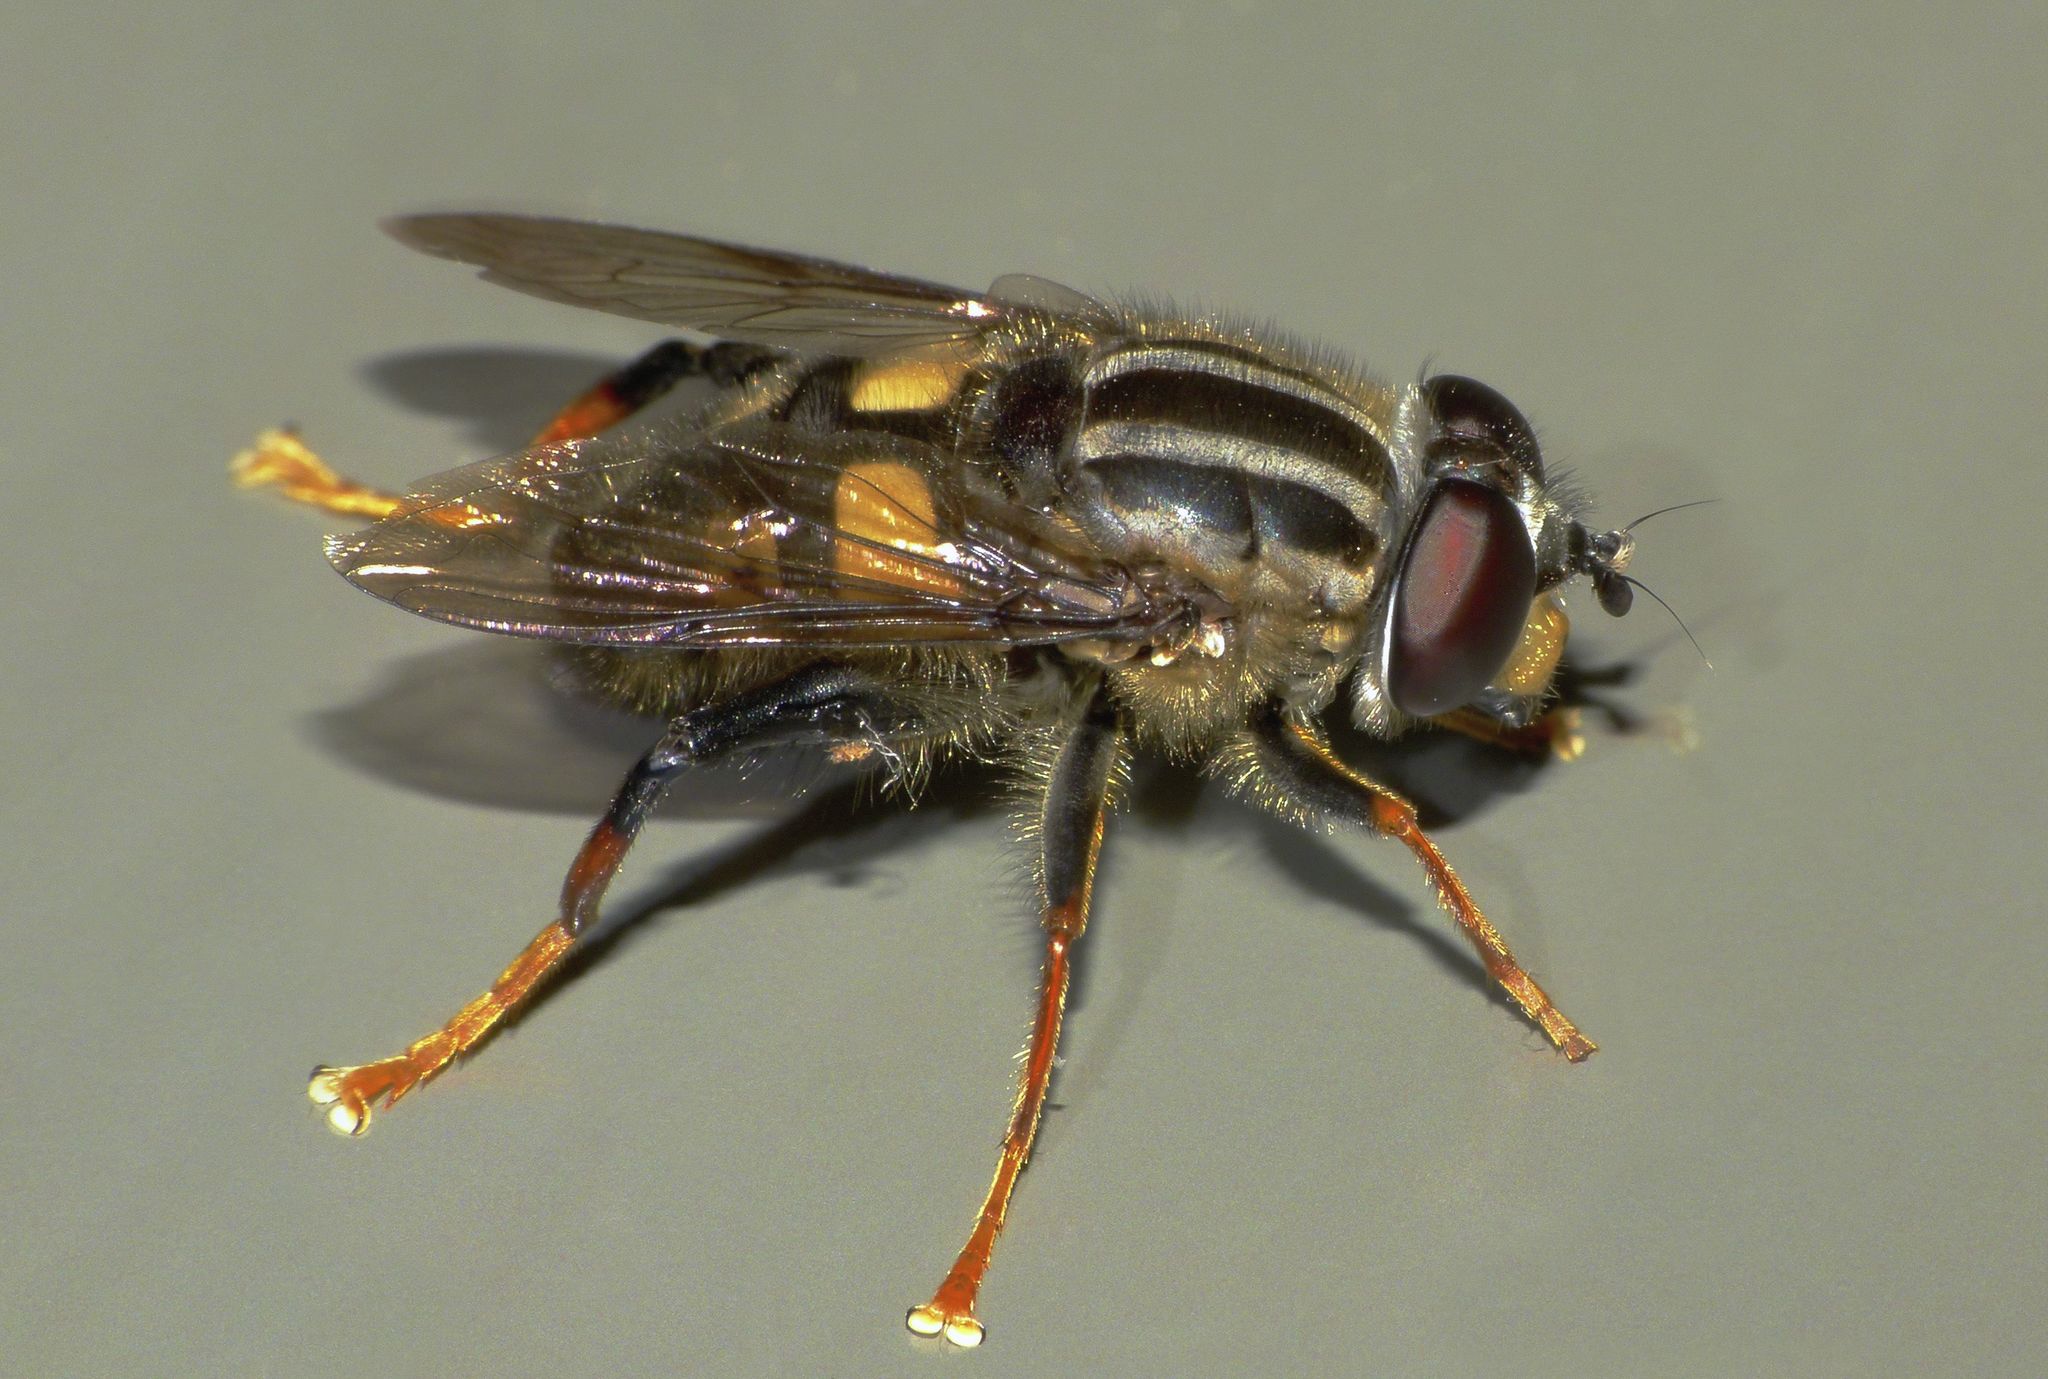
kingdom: Animalia
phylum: Arthropoda
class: Insecta
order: Diptera
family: Syrphidae
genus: Helophilus
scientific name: Helophilus seelandicus
